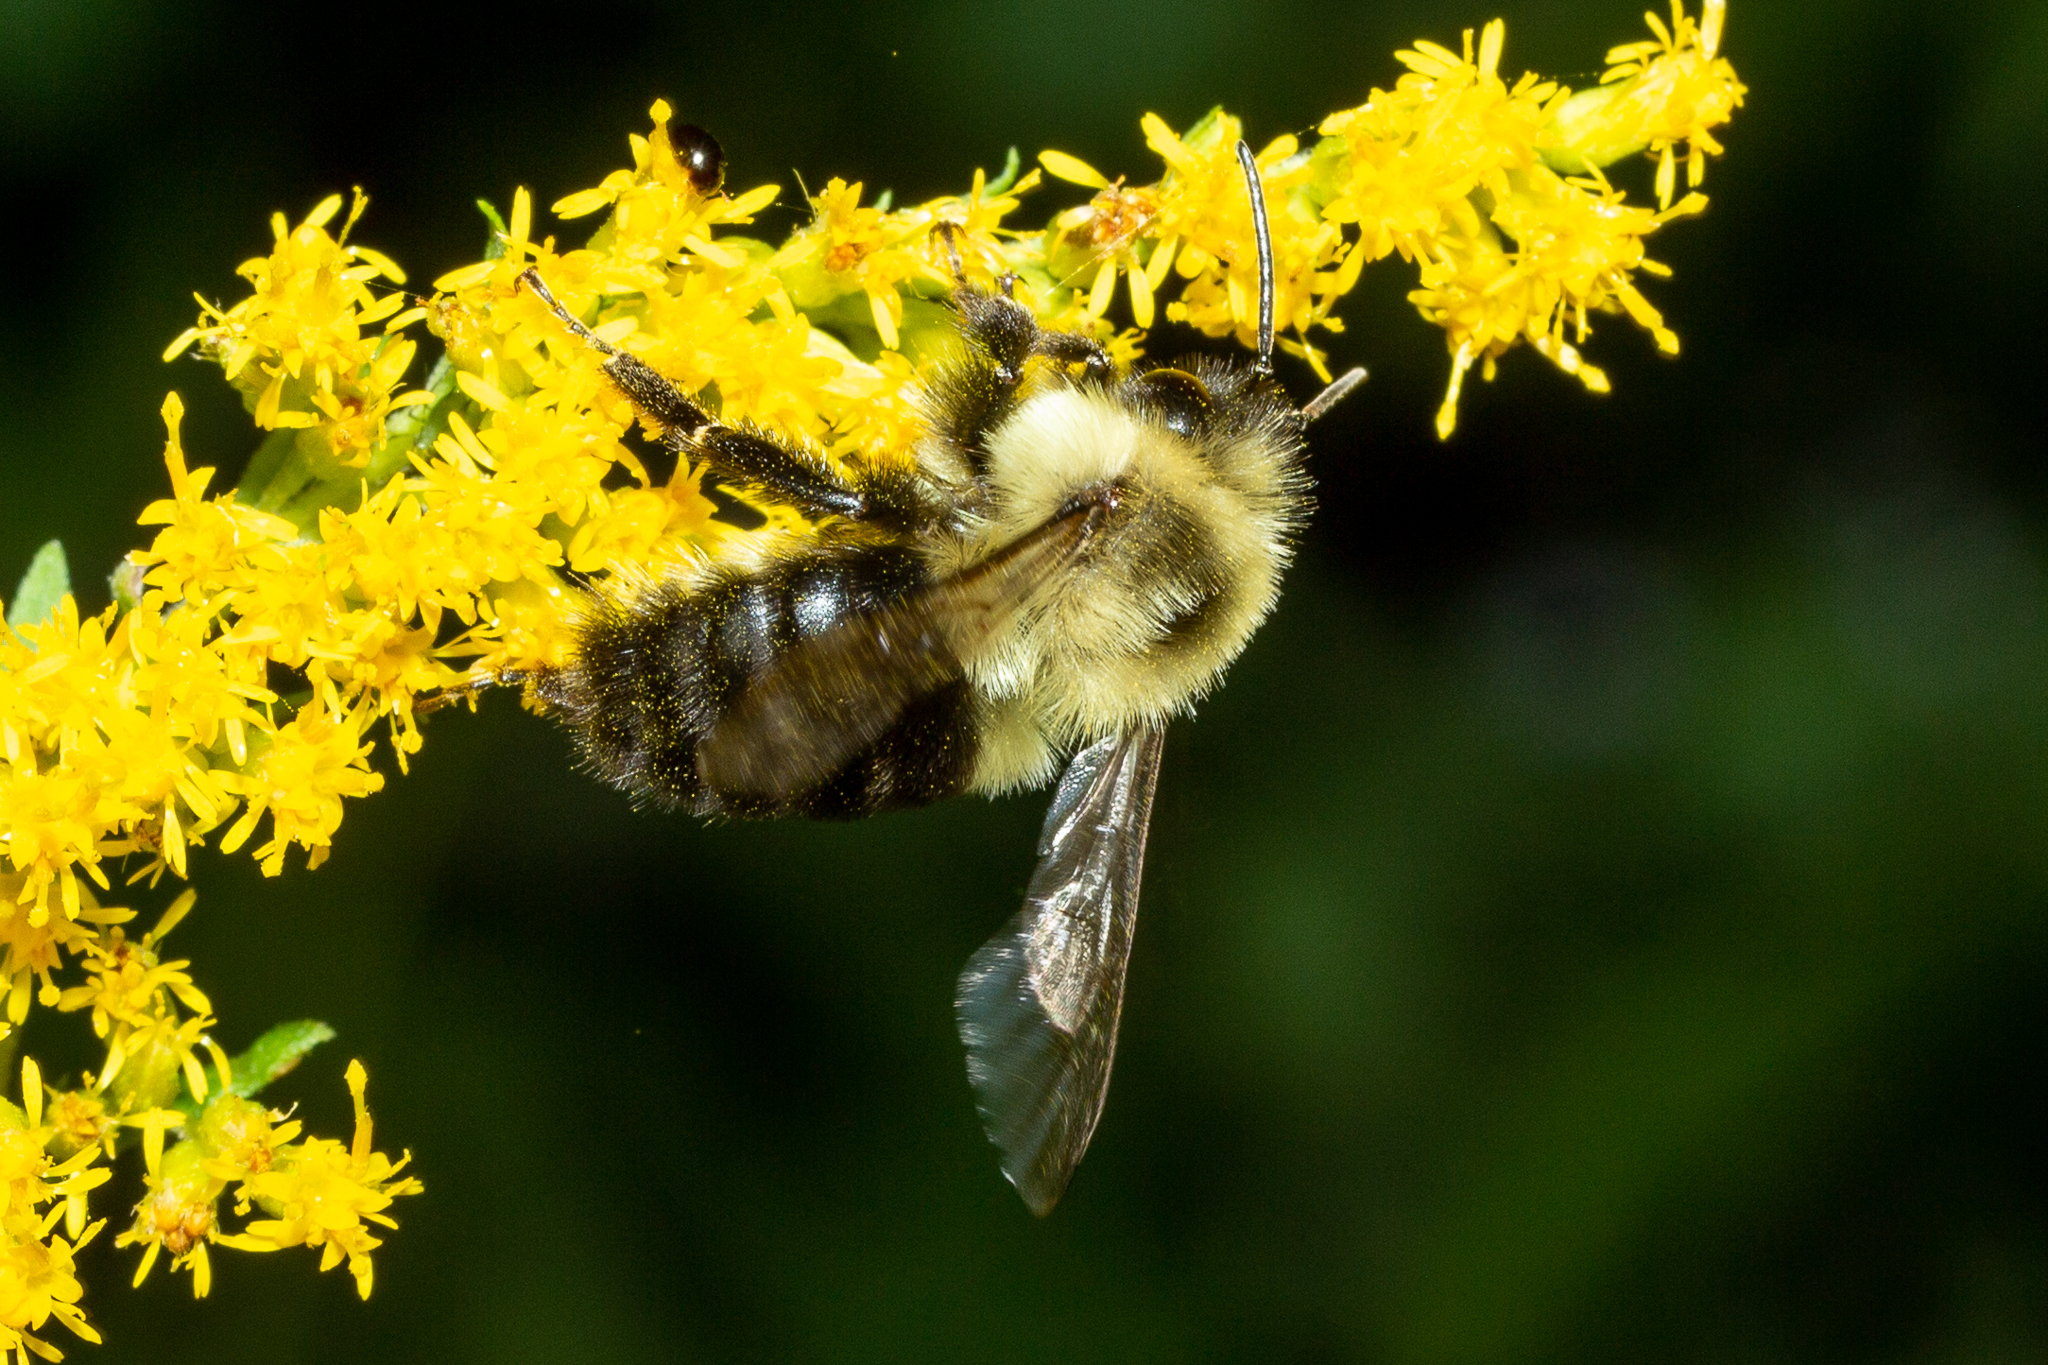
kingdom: Animalia
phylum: Arthropoda
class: Insecta
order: Hymenoptera
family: Apidae
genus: Bombus
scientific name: Bombus impatiens
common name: Common eastern bumble bee
